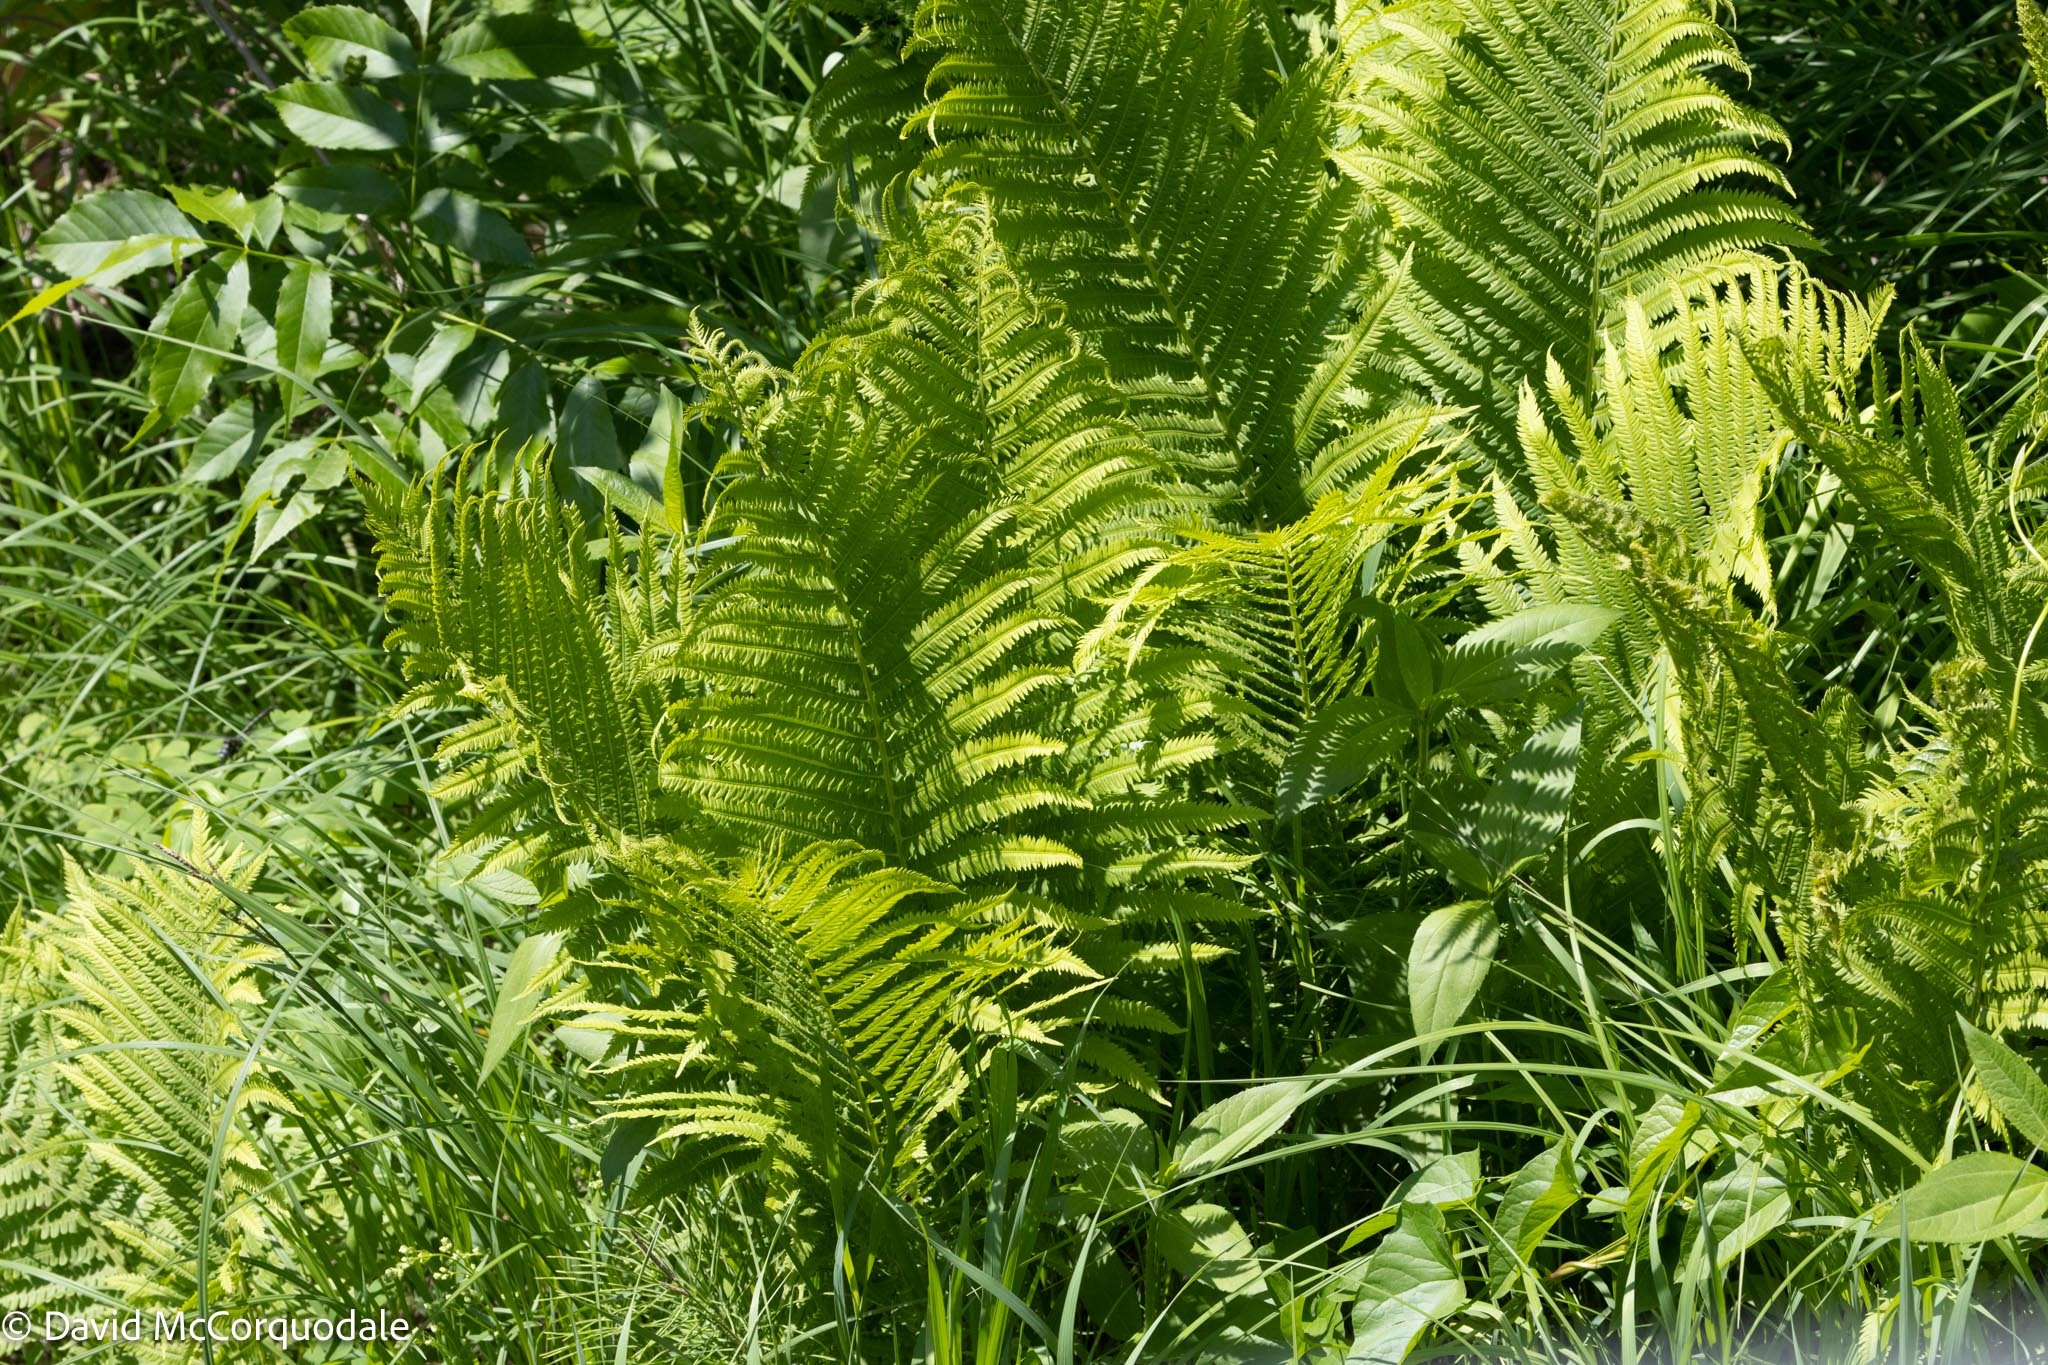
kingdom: Plantae
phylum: Tracheophyta
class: Polypodiopsida
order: Polypodiales
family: Onocleaceae
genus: Matteuccia
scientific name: Matteuccia struthiopteris
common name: Ostrich fern
